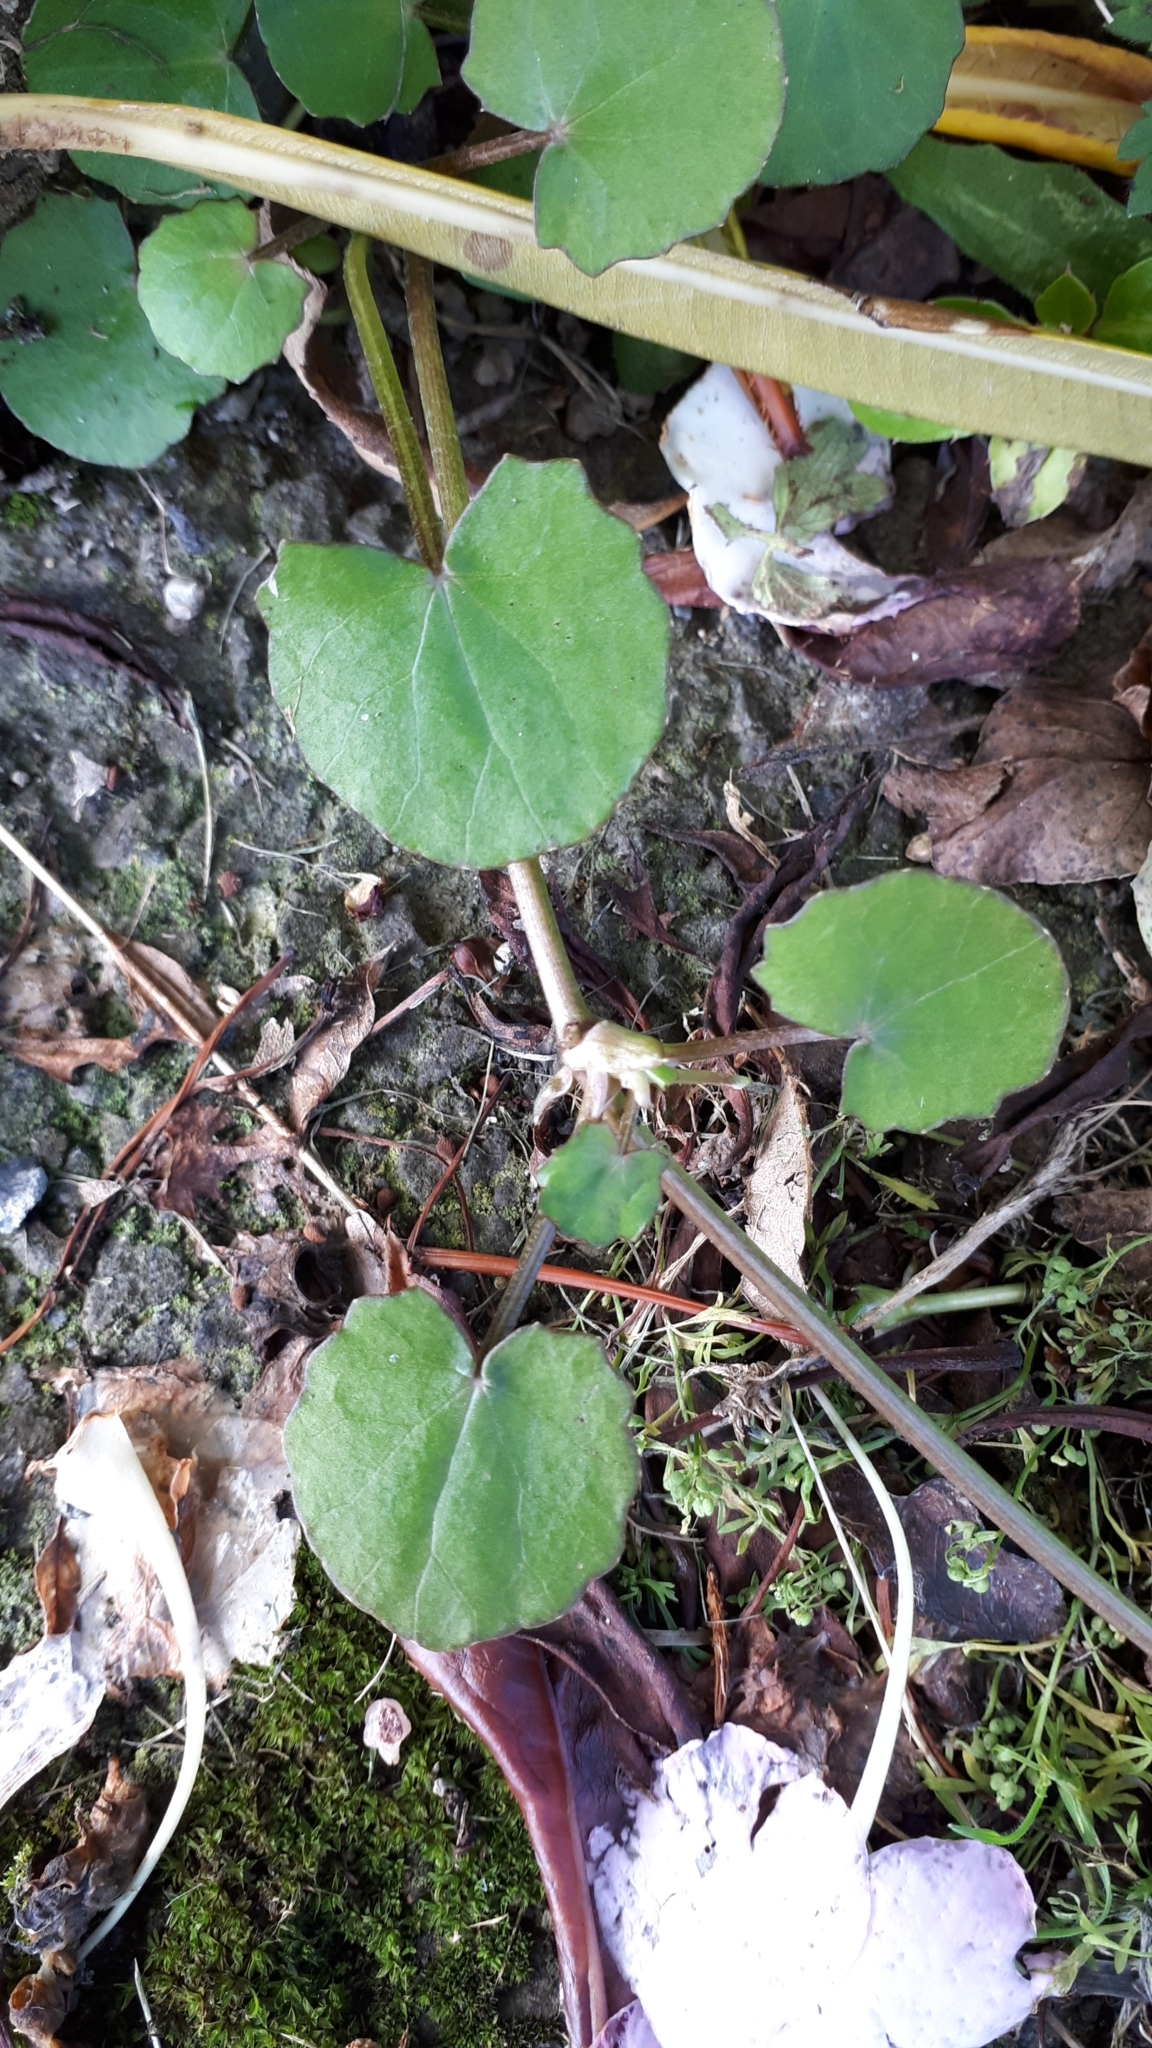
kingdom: Plantae
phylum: Tracheophyta
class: Magnoliopsida
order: Apiales
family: Apiaceae
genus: Centella
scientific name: Centella uniflora
